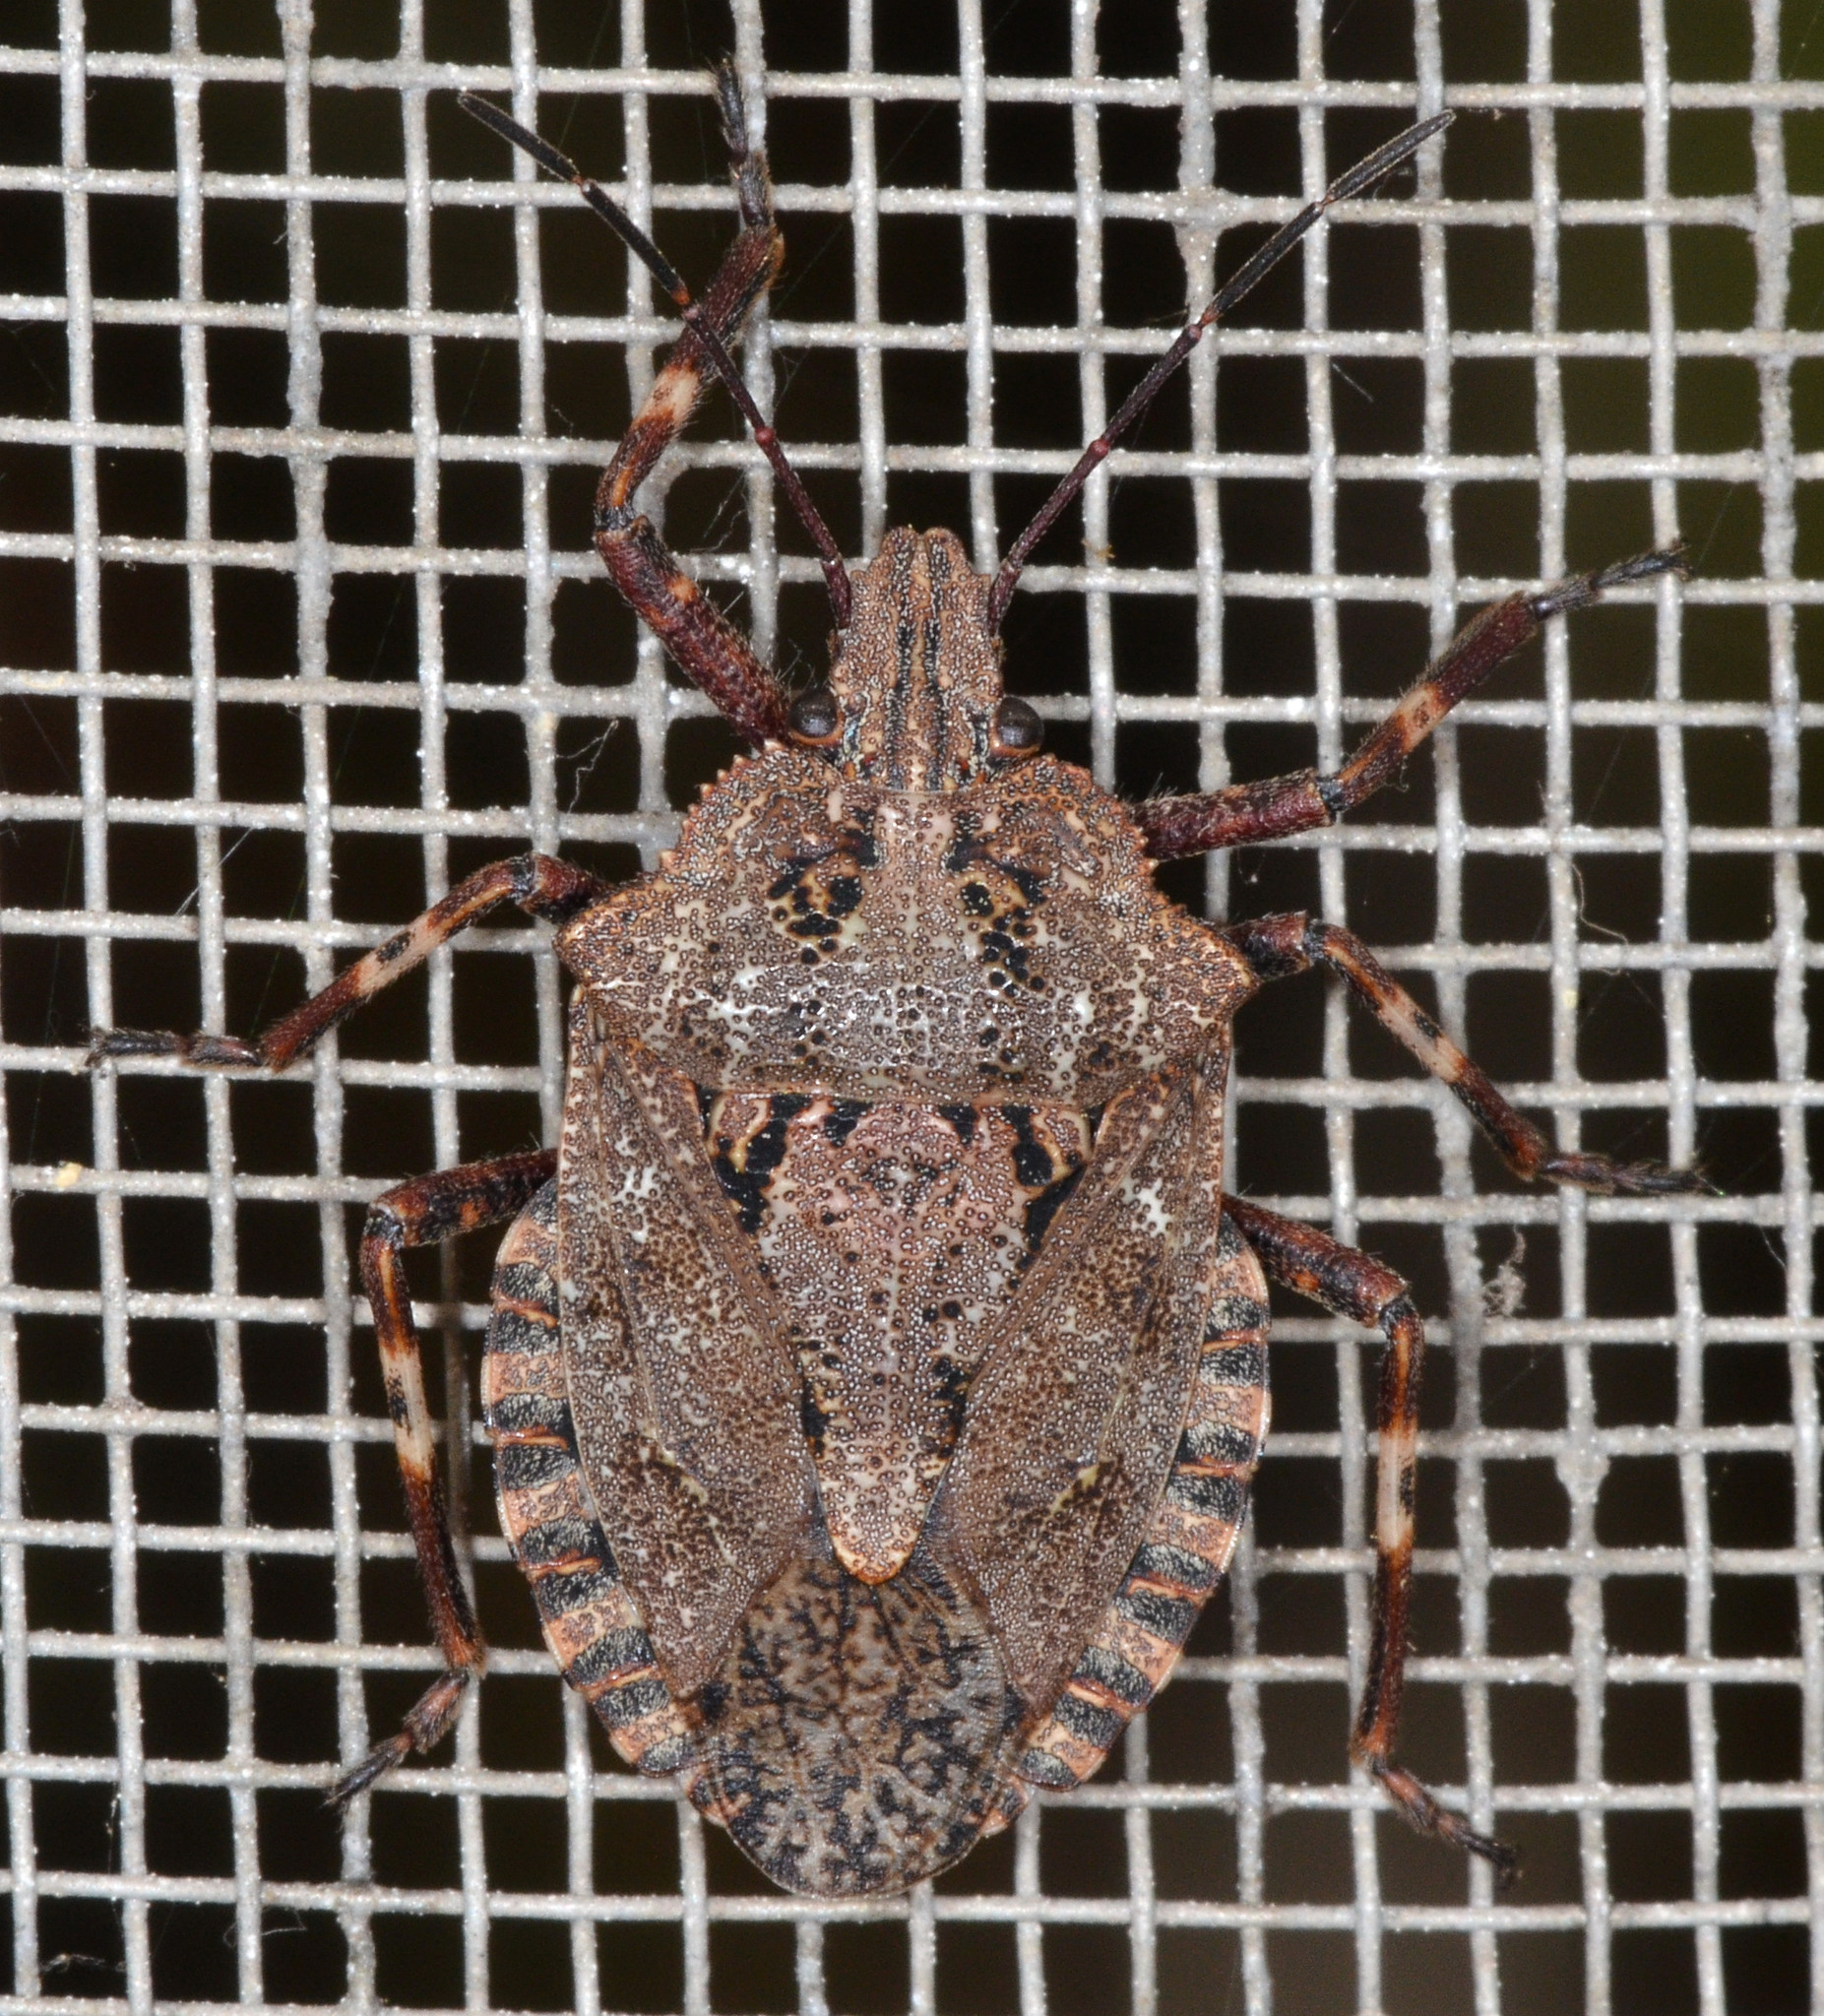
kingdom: Animalia
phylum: Arthropoda
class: Insecta
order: Hemiptera
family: Pentatomidae
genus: Brochymena
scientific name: Brochymena affinis
